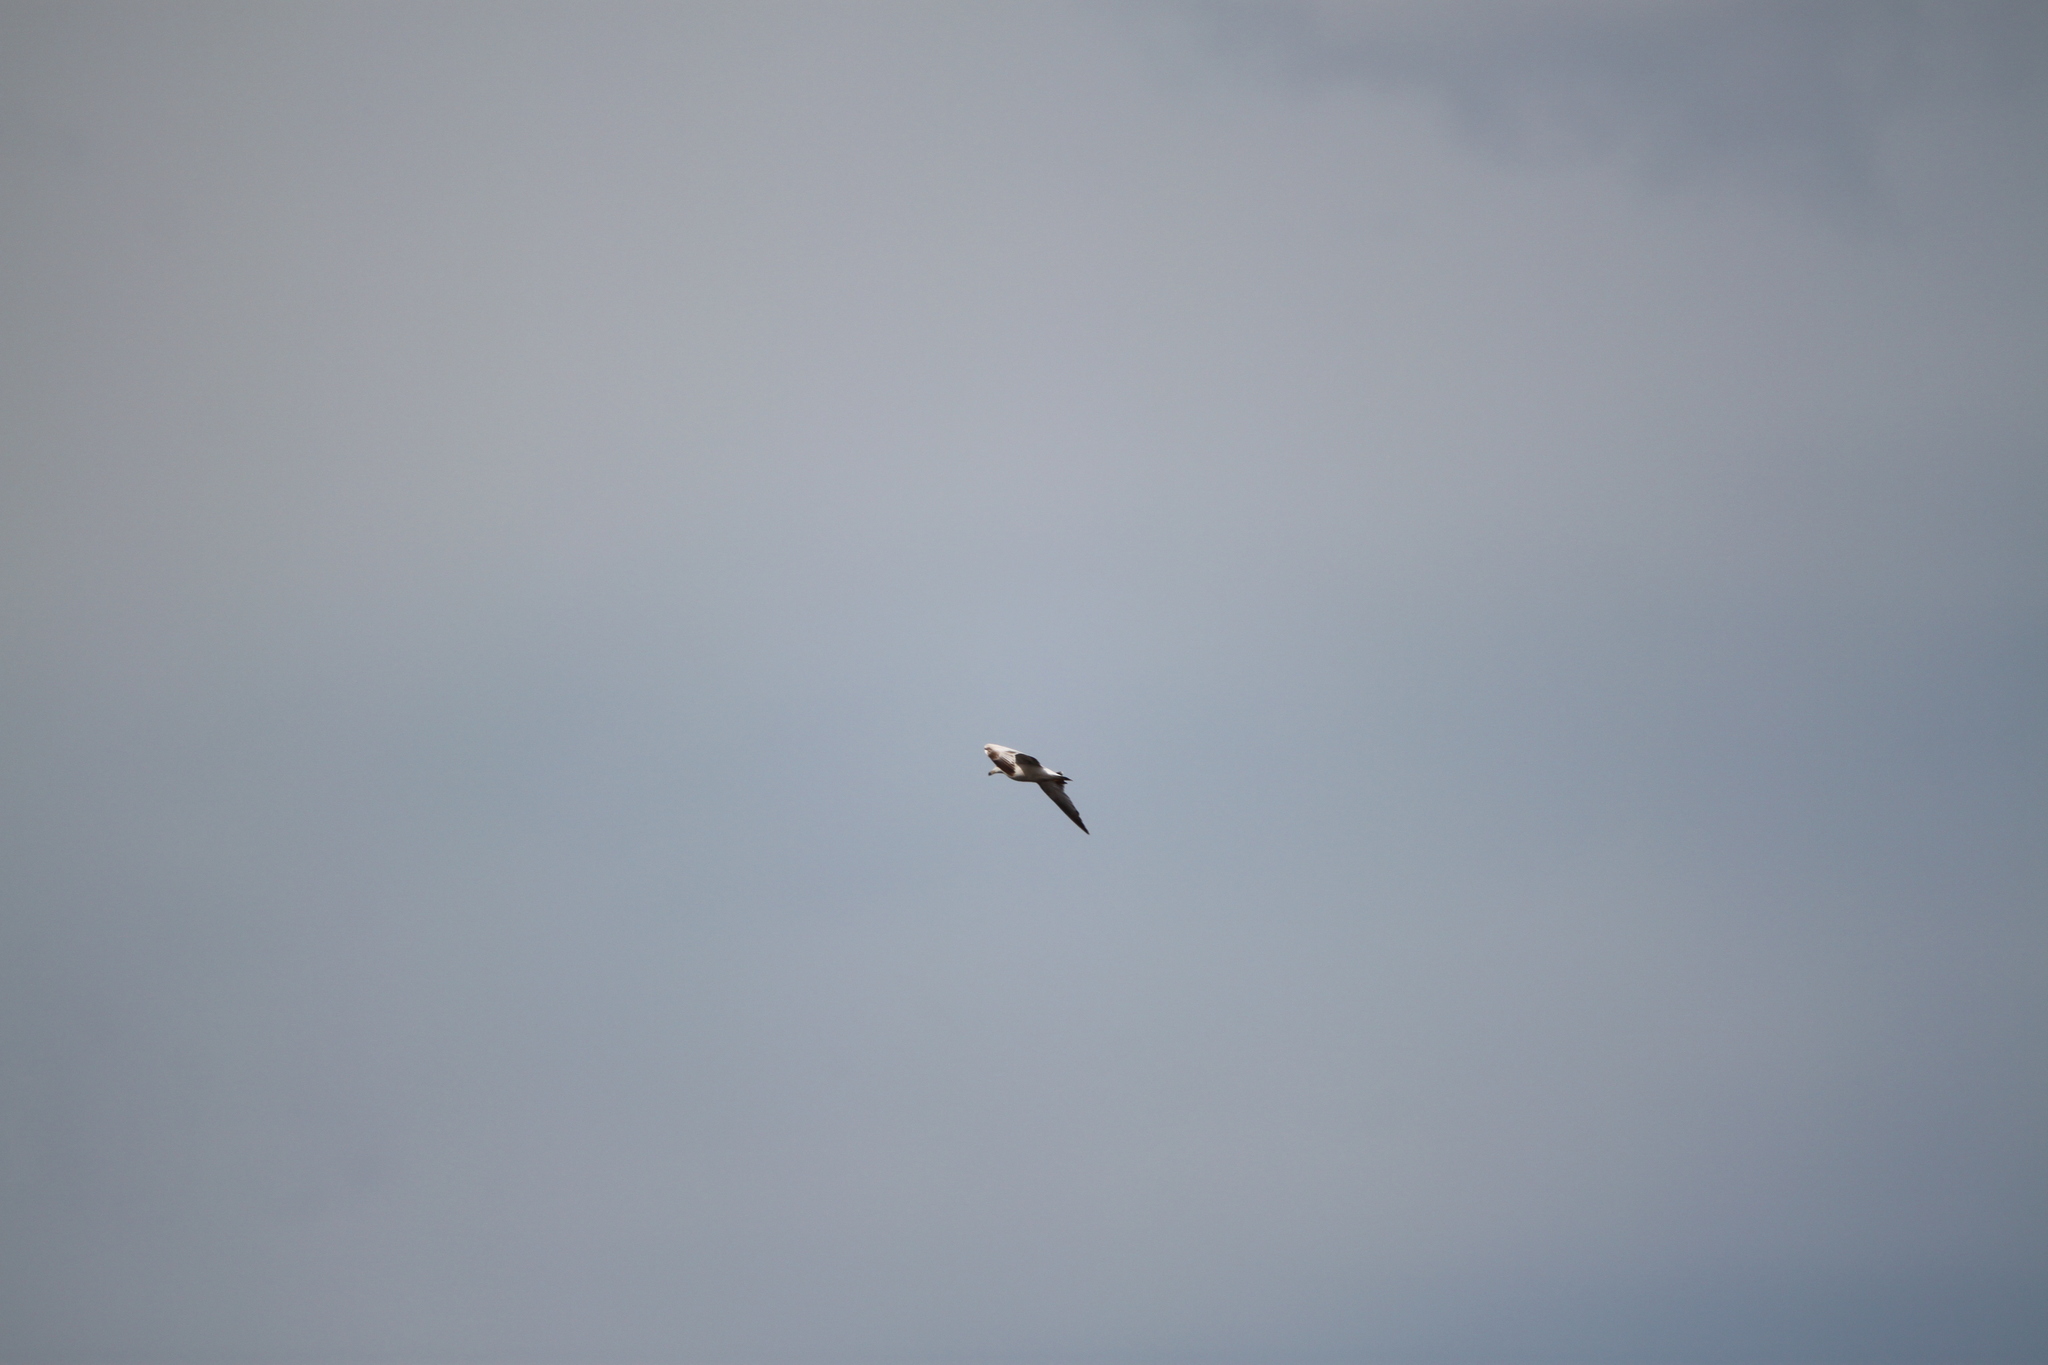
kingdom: Animalia
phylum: Chordata
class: Aves
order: Charadriiformes
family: Laridae
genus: Larus
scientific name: Larus delawarensis
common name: Ring-billed gull
